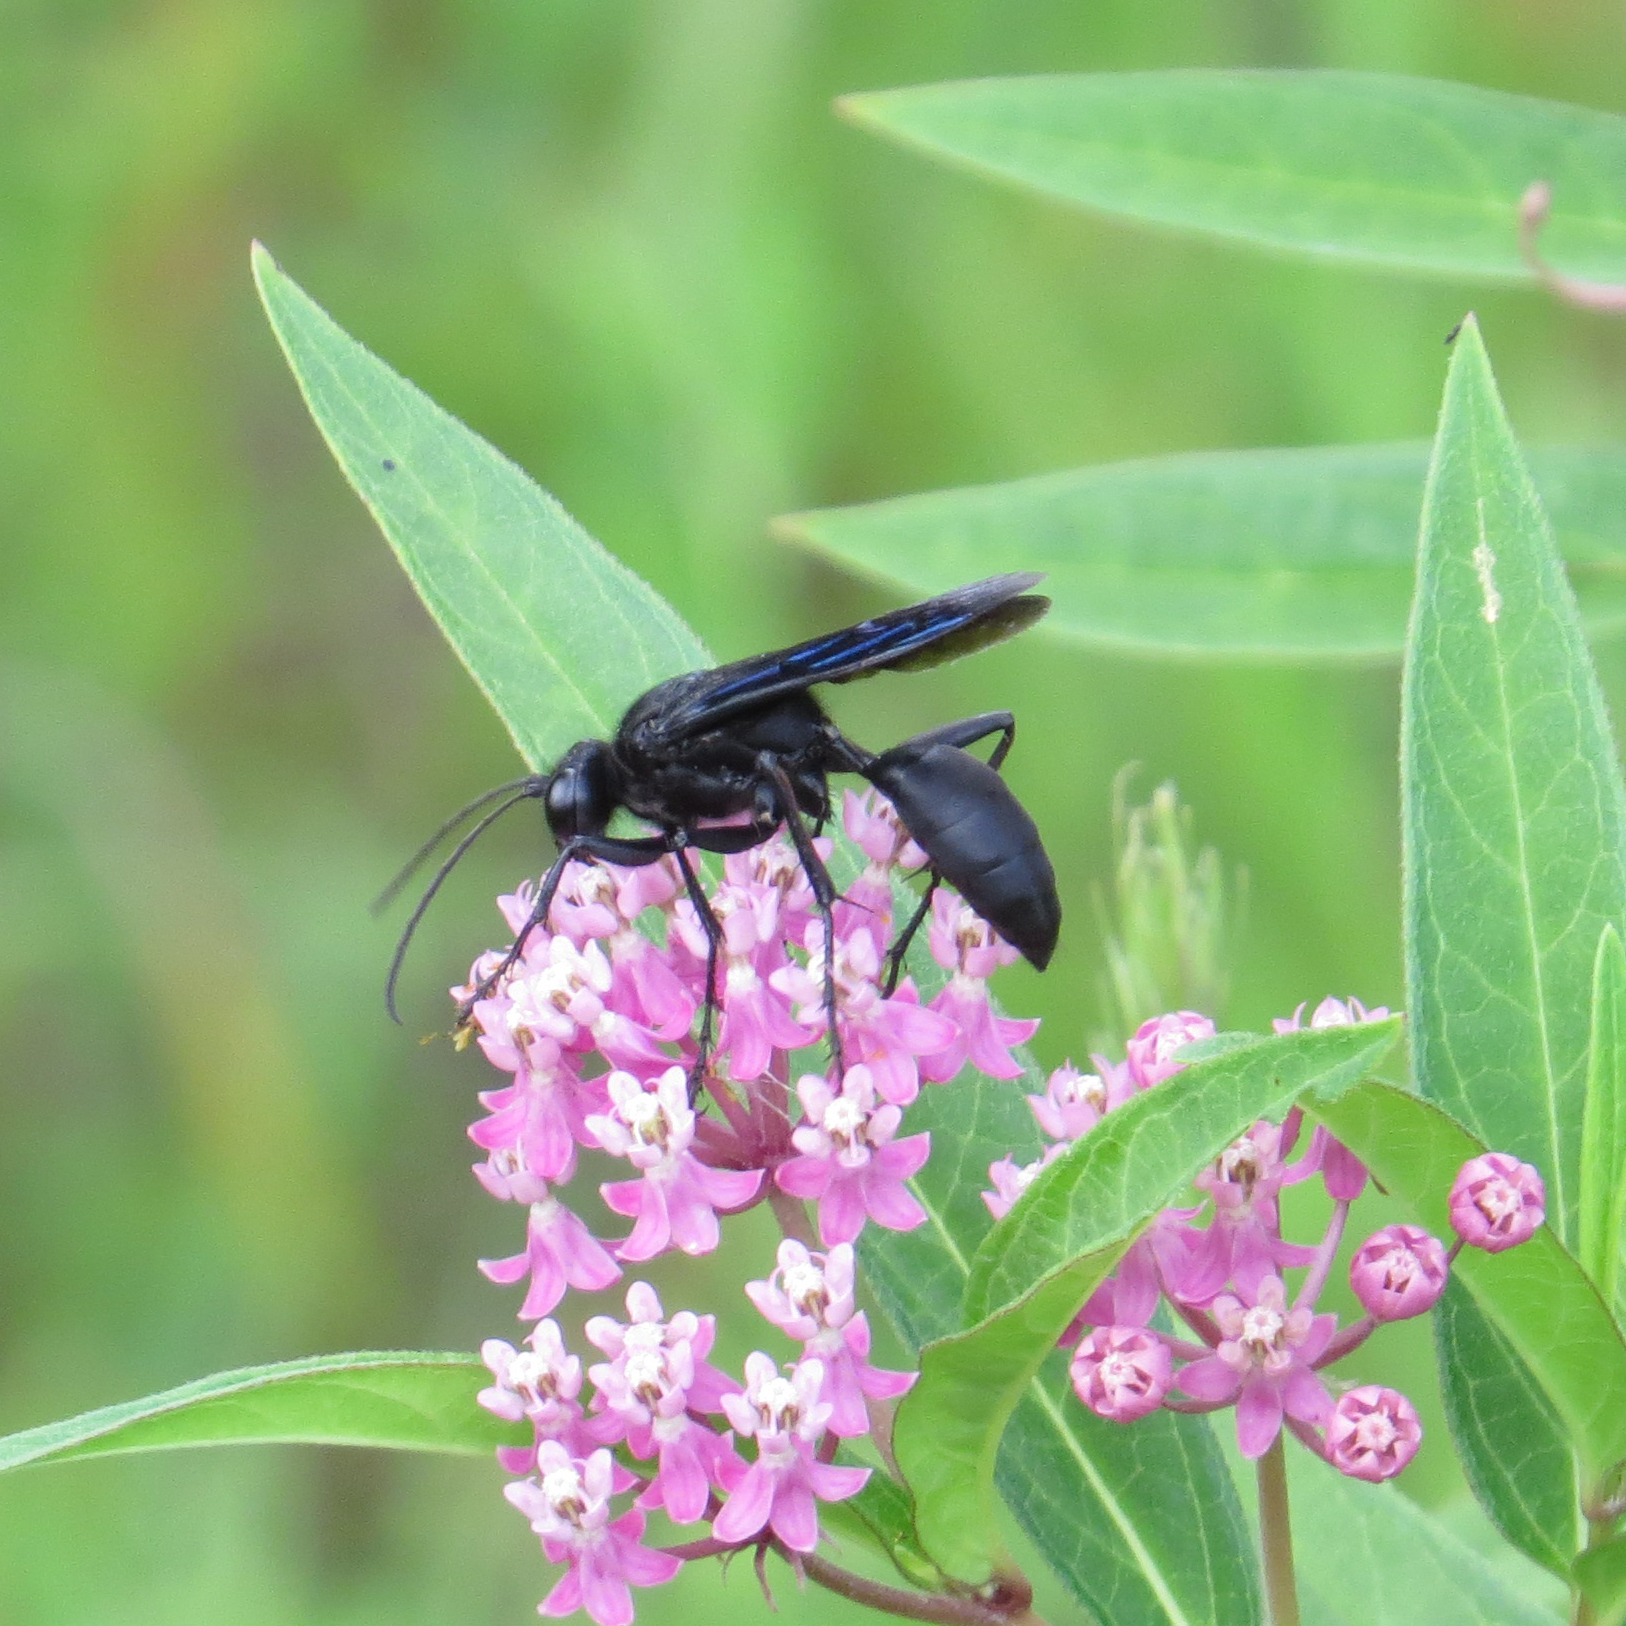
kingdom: Animalia
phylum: Arthropoda
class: Insecta
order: Hymenoptera
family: Sphecidae
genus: Sphex
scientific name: Sphex pensylvanicus
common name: Great black digger wasp
